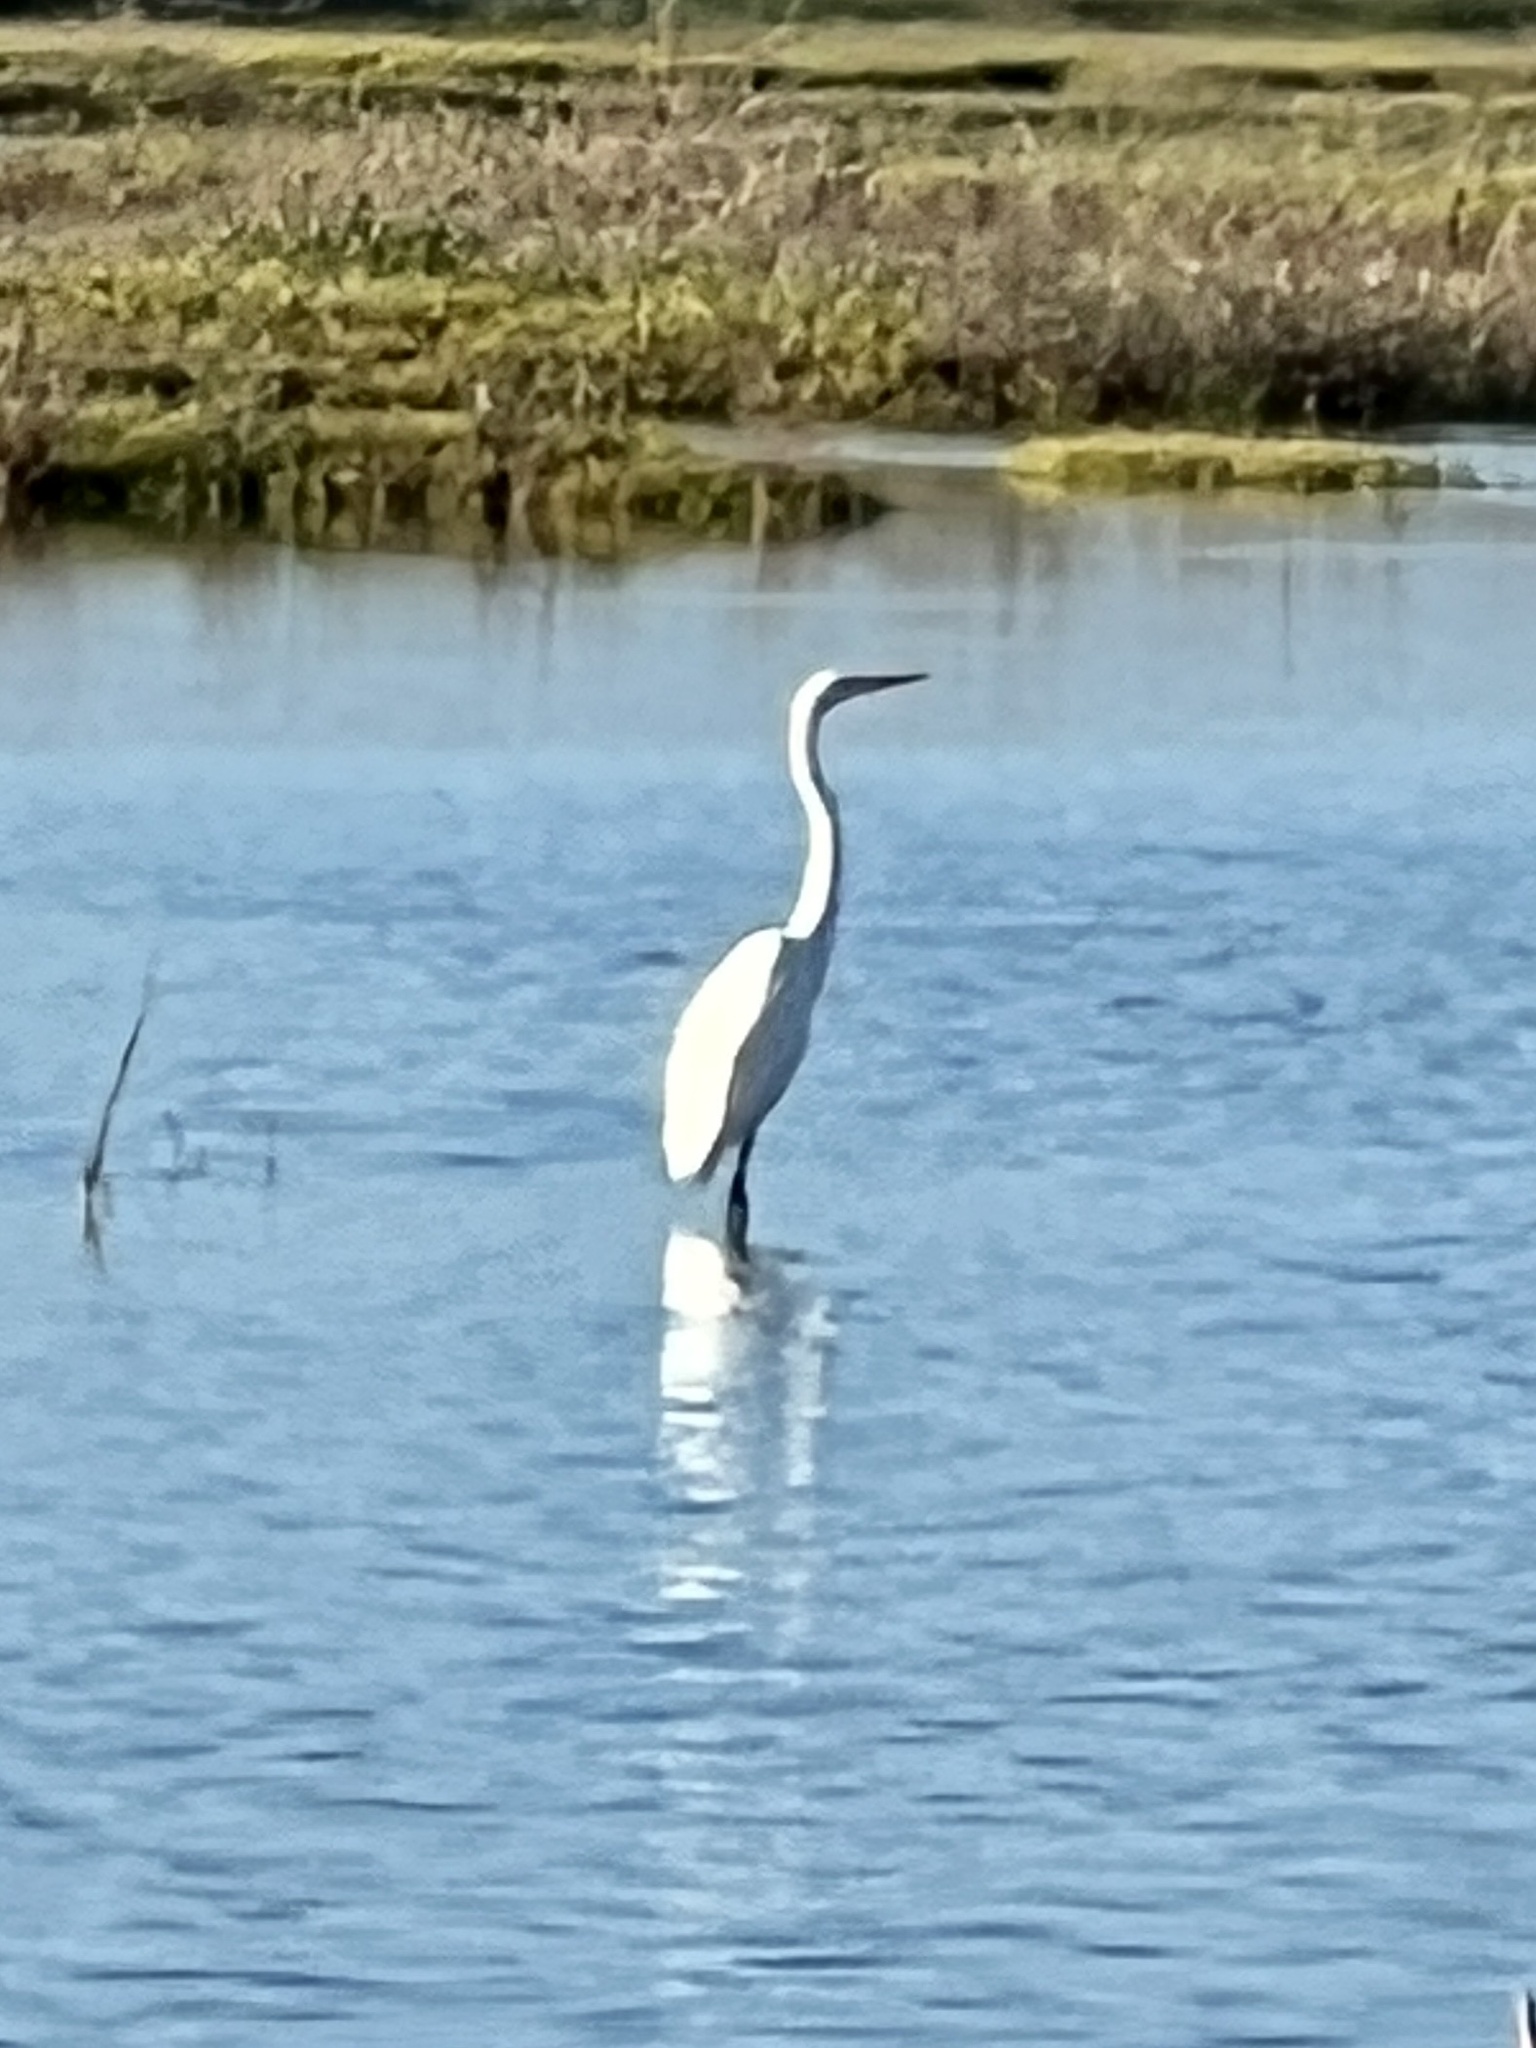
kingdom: Animalia
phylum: Chordata
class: Aves
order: Pelecaniformes
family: Ardeidae
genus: Ardea
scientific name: Ardea alba
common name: Great egret
